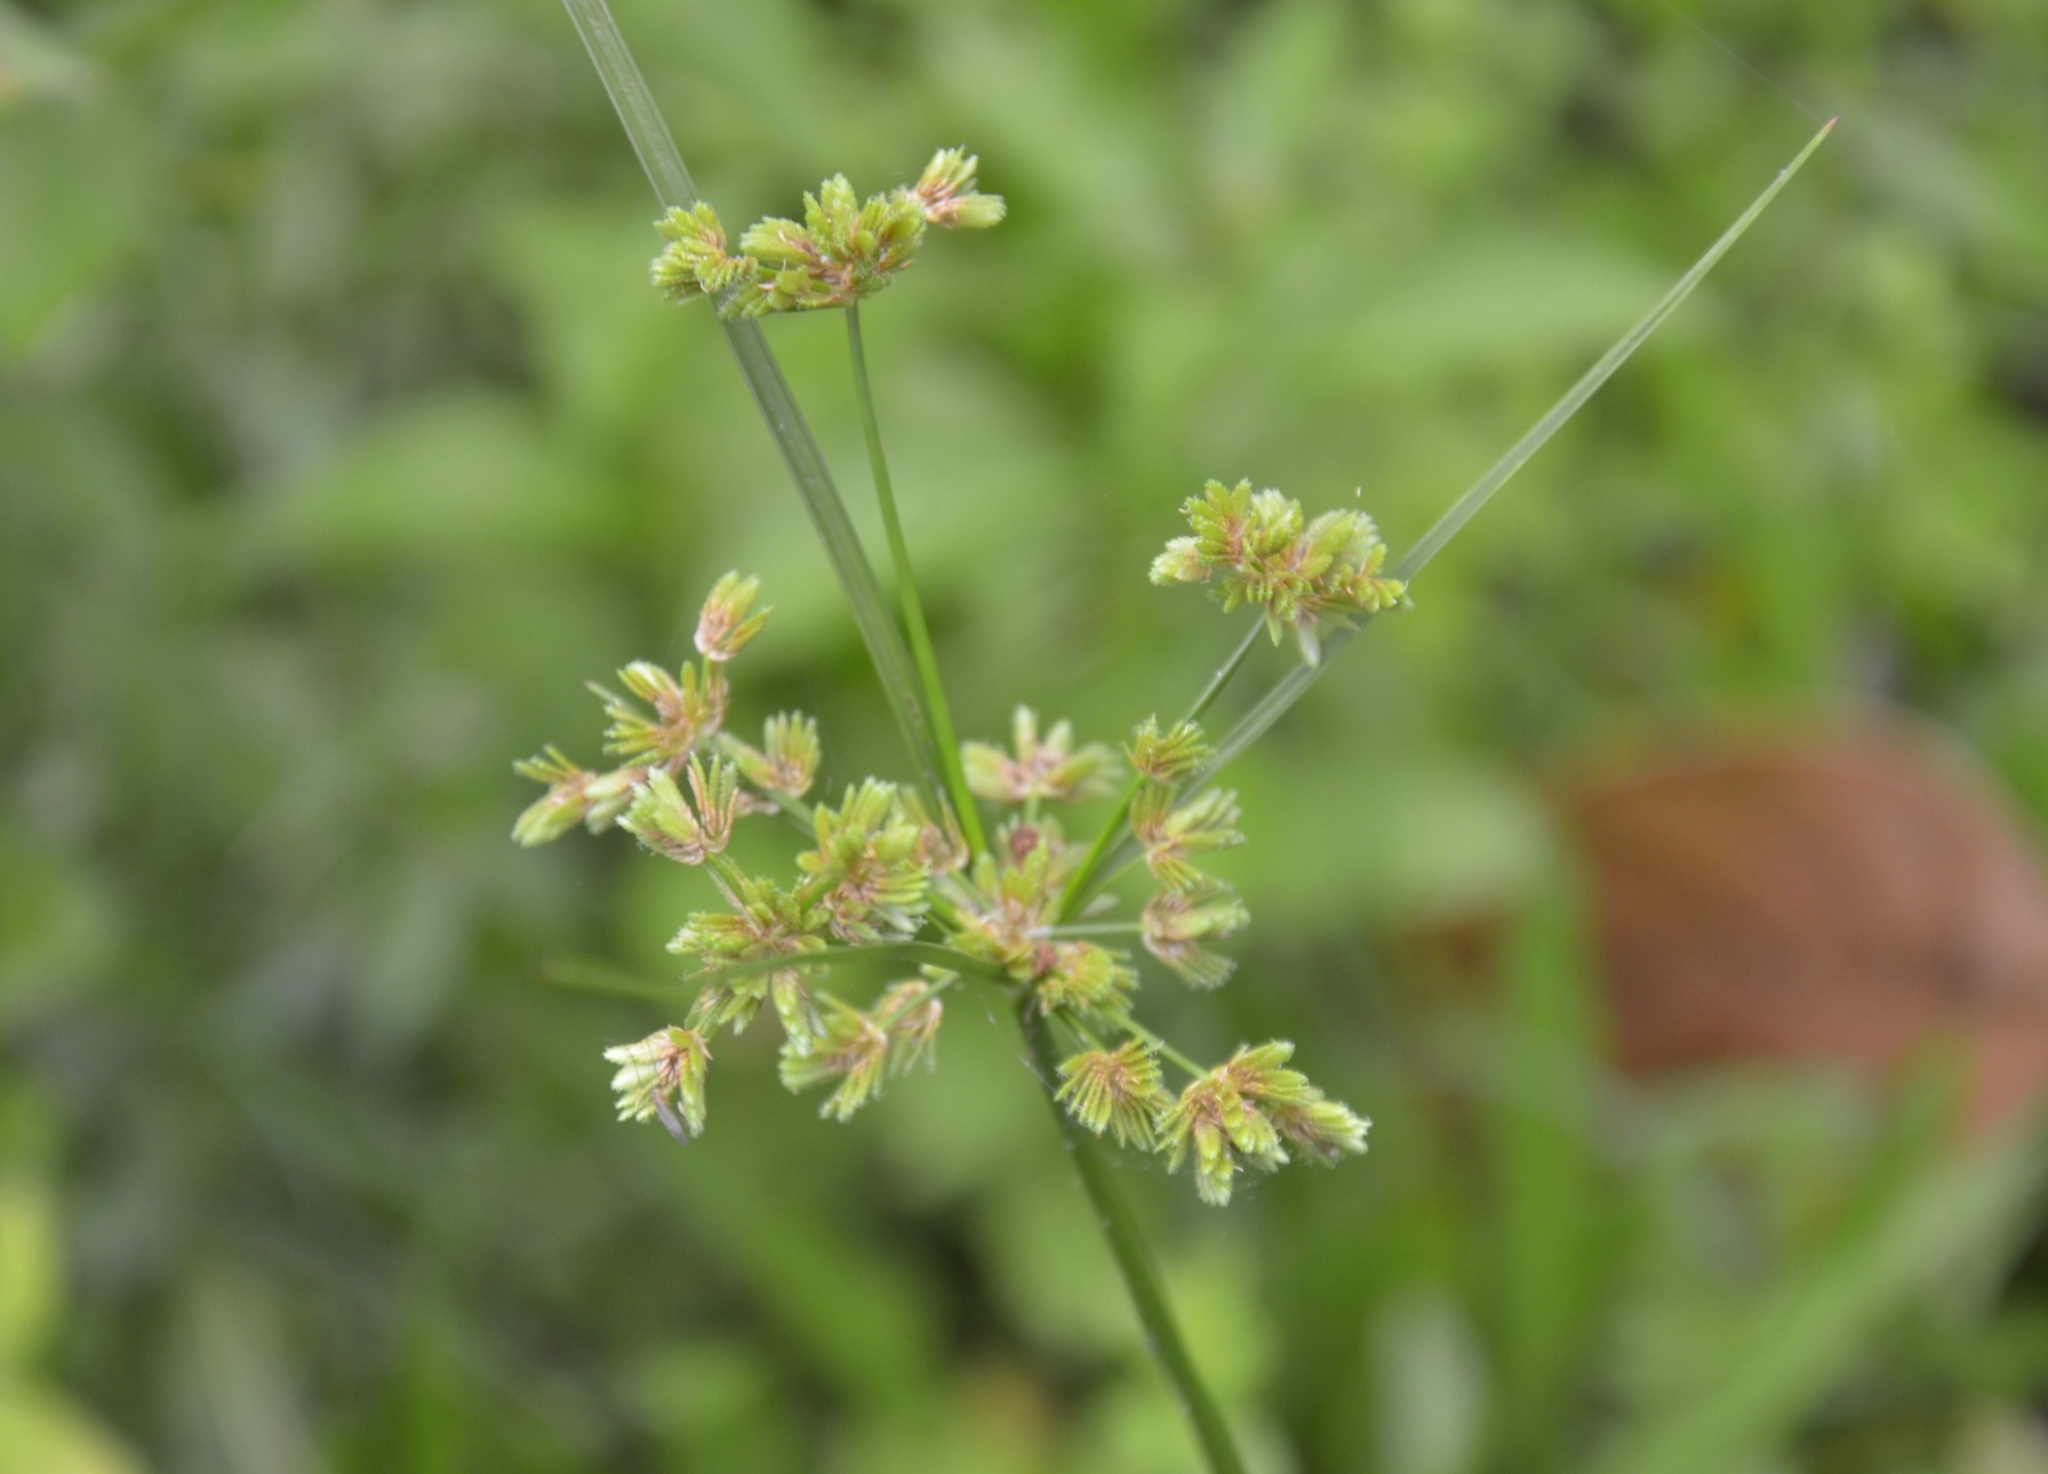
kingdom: Plantae
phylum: Tracheophyta
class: Liliopsida
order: Poales
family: Cyperaceae
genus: Cyperus
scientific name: Cyperus surinamensis
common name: Tropical flat sedge
